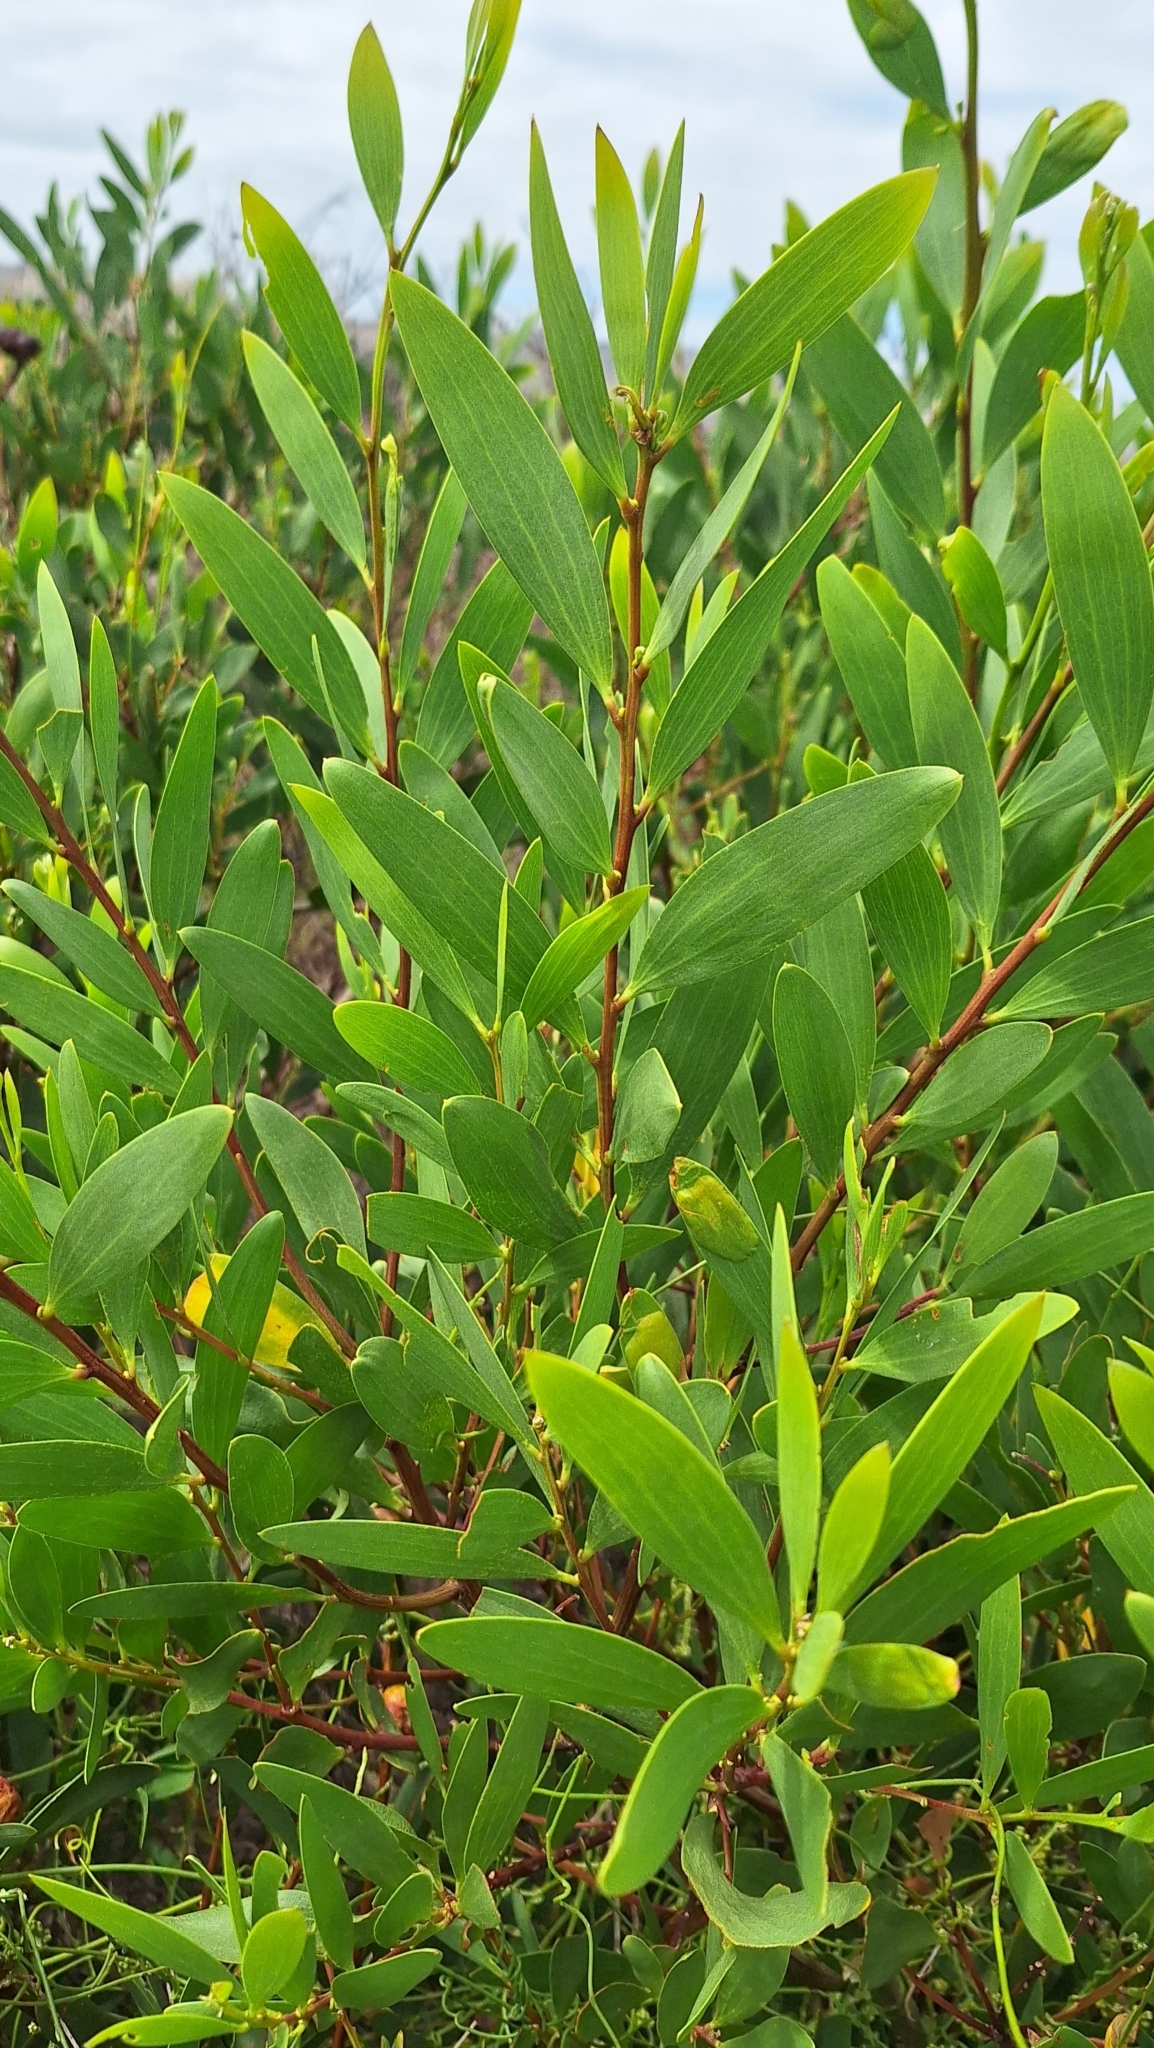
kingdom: Plantae
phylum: Tracheophyta
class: Magnoliopsida
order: Fabales
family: Fabaceae
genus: Acacia
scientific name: Acacia longifolia
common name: Sydney golden wattle
